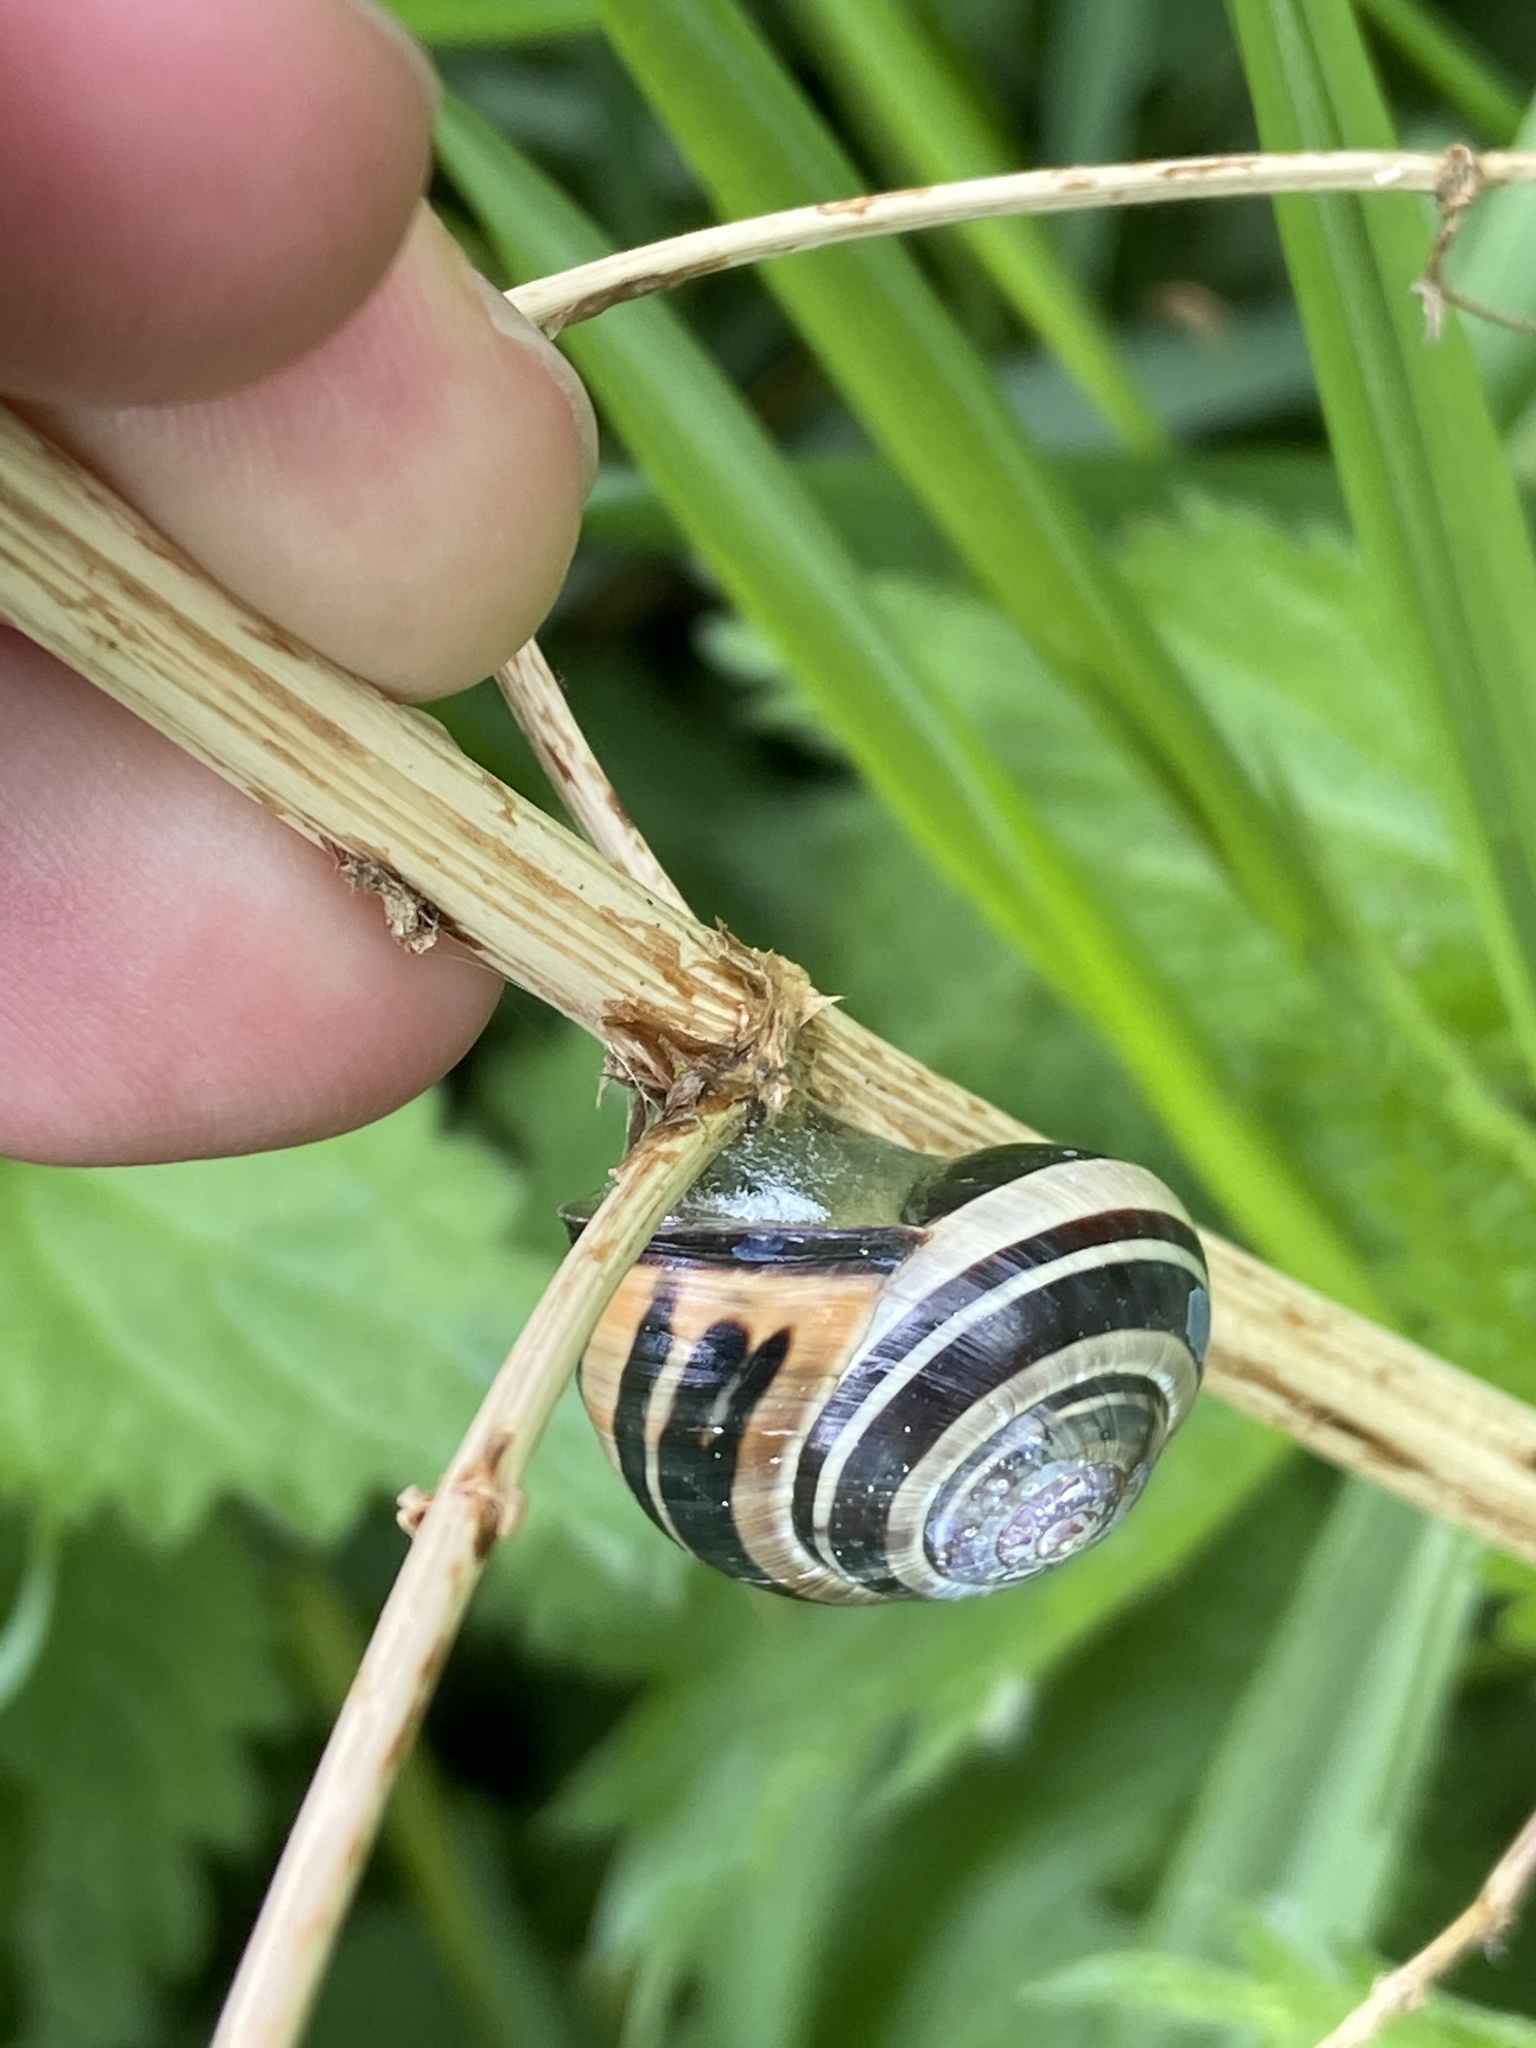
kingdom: Animalia
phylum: Mollusca
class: Gastropoda
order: Stylommatophora
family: Helicidae
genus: Cepaea
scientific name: Cepaea nemoralis
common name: Grovesnail
